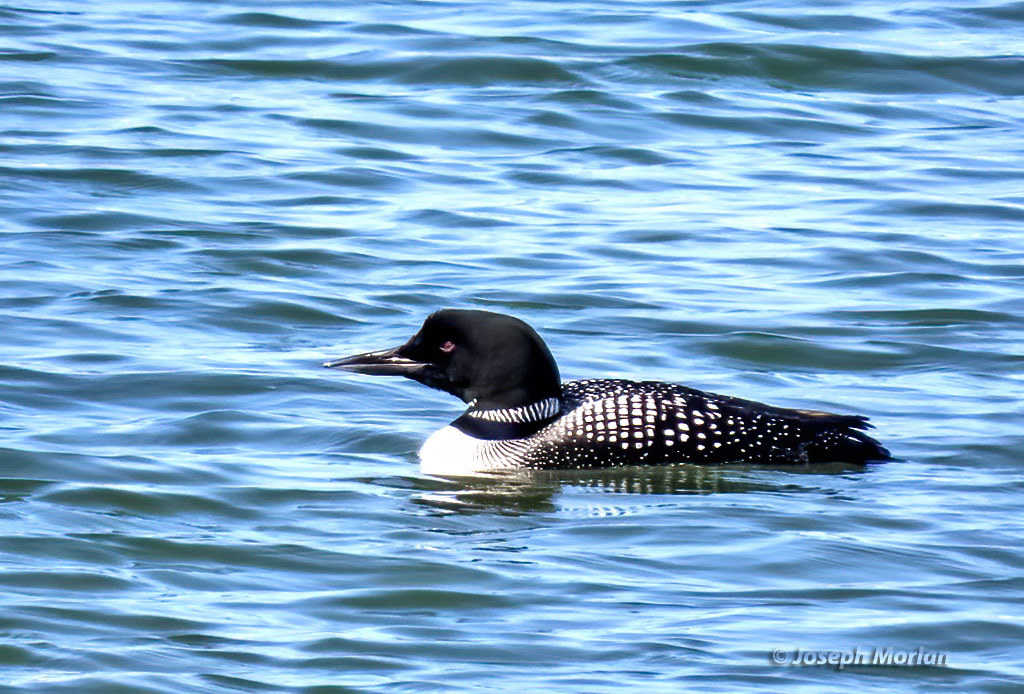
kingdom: Animalia
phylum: Chordata
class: Aves
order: Gaviiformes
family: Gaviidae
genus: Gavia
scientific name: Gavia immer
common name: Common loon
